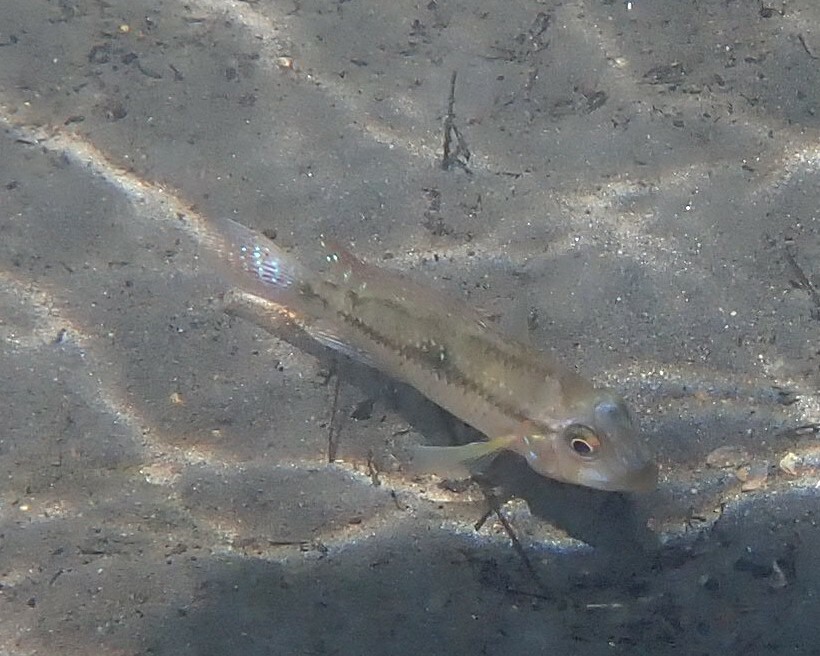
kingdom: Animalia
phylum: Chordata
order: Perciformes
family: Cichlidae
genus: Geophagus
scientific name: Geophagus brasiliensis
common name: Braziliensis
